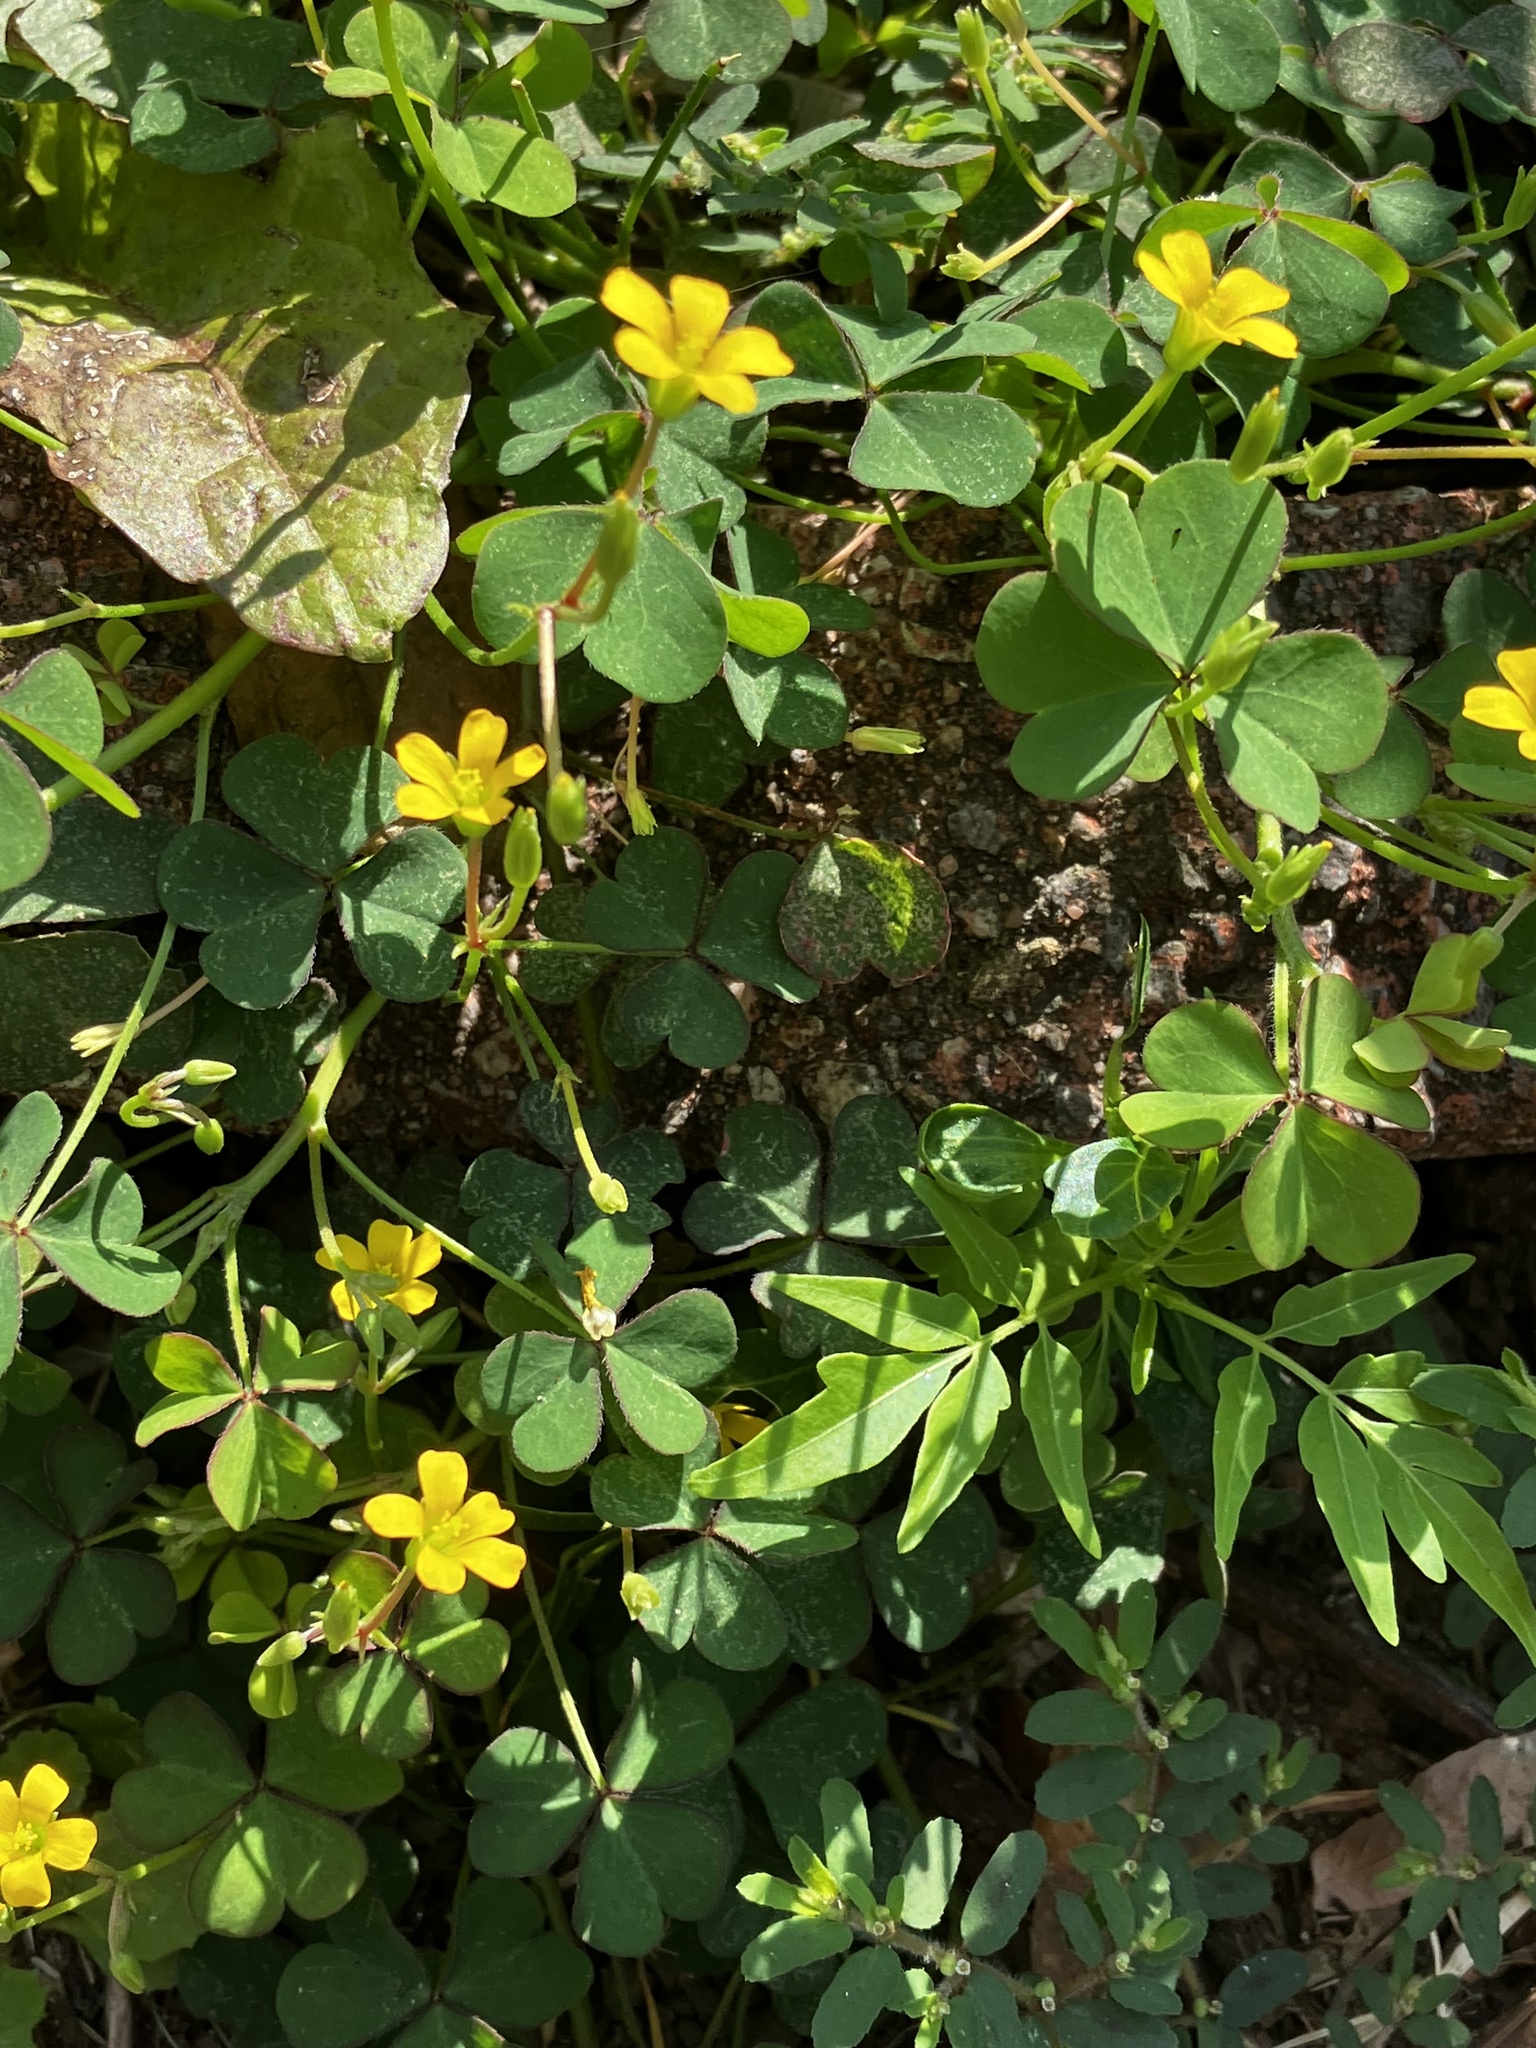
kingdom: Plantae
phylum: Tracheophyta
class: Magnoliopsida
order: Oxalidales
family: Oxalidaceae
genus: Oxalis
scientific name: Oxalis corniculata
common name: Procumbent yellow-sorrel
